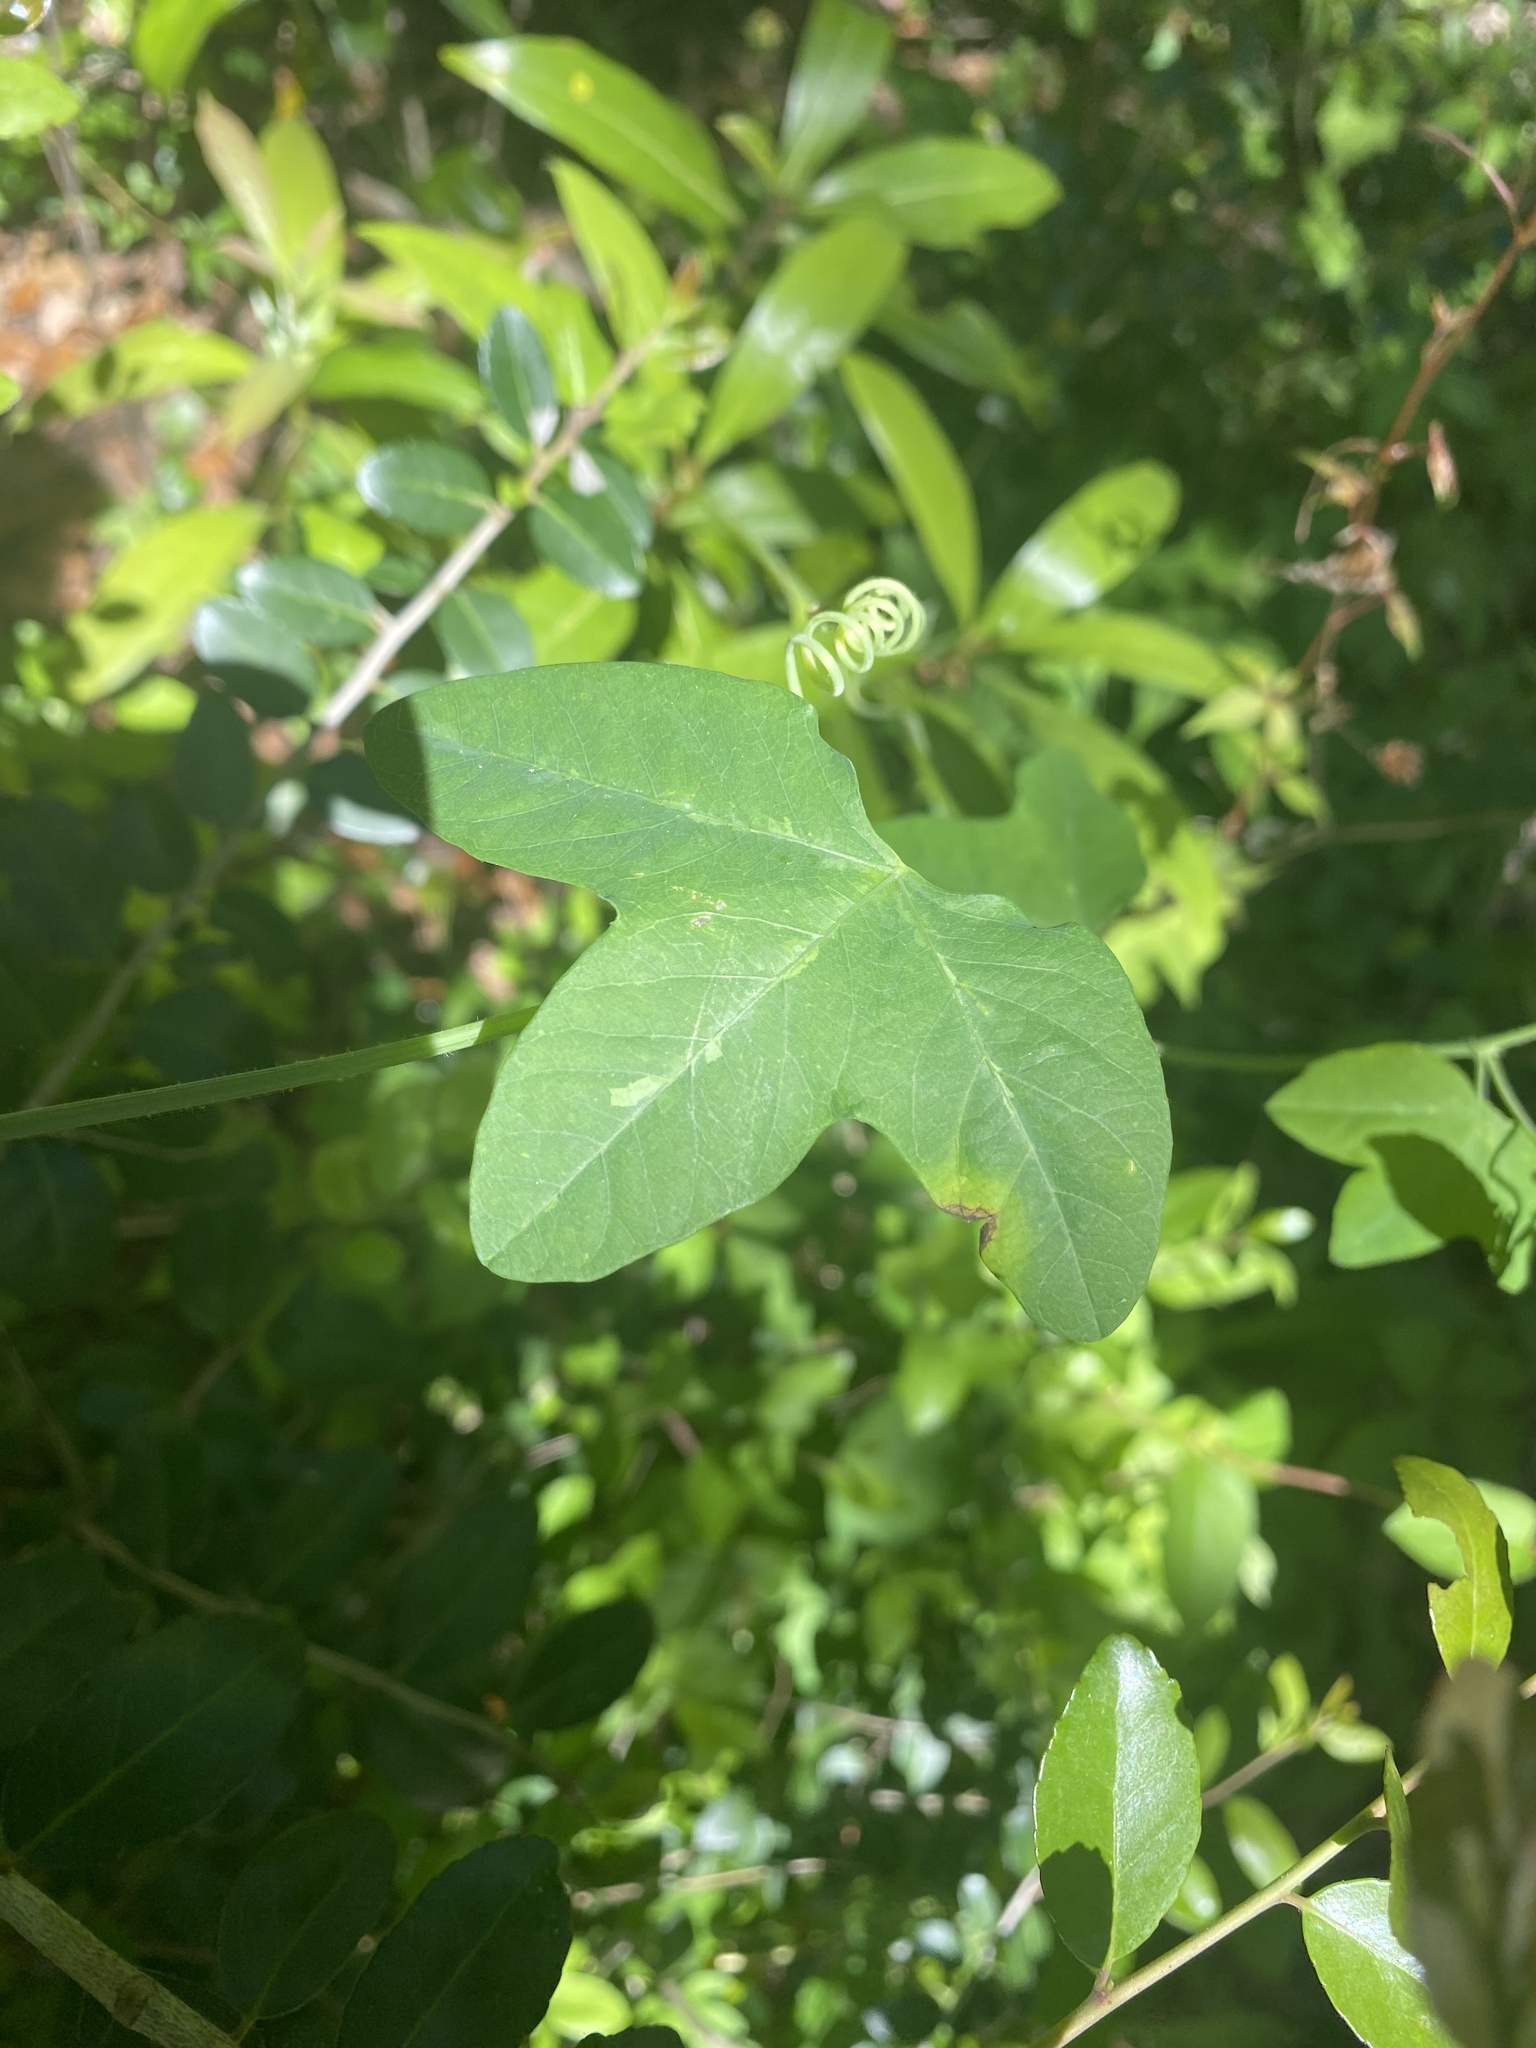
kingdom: Plantae
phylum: Tracheophyta
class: Magnoliopsida
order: Malpighiales
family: Passifloraceae
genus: Passiflora
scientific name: Passiflora lutea
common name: Yellow passionflower
